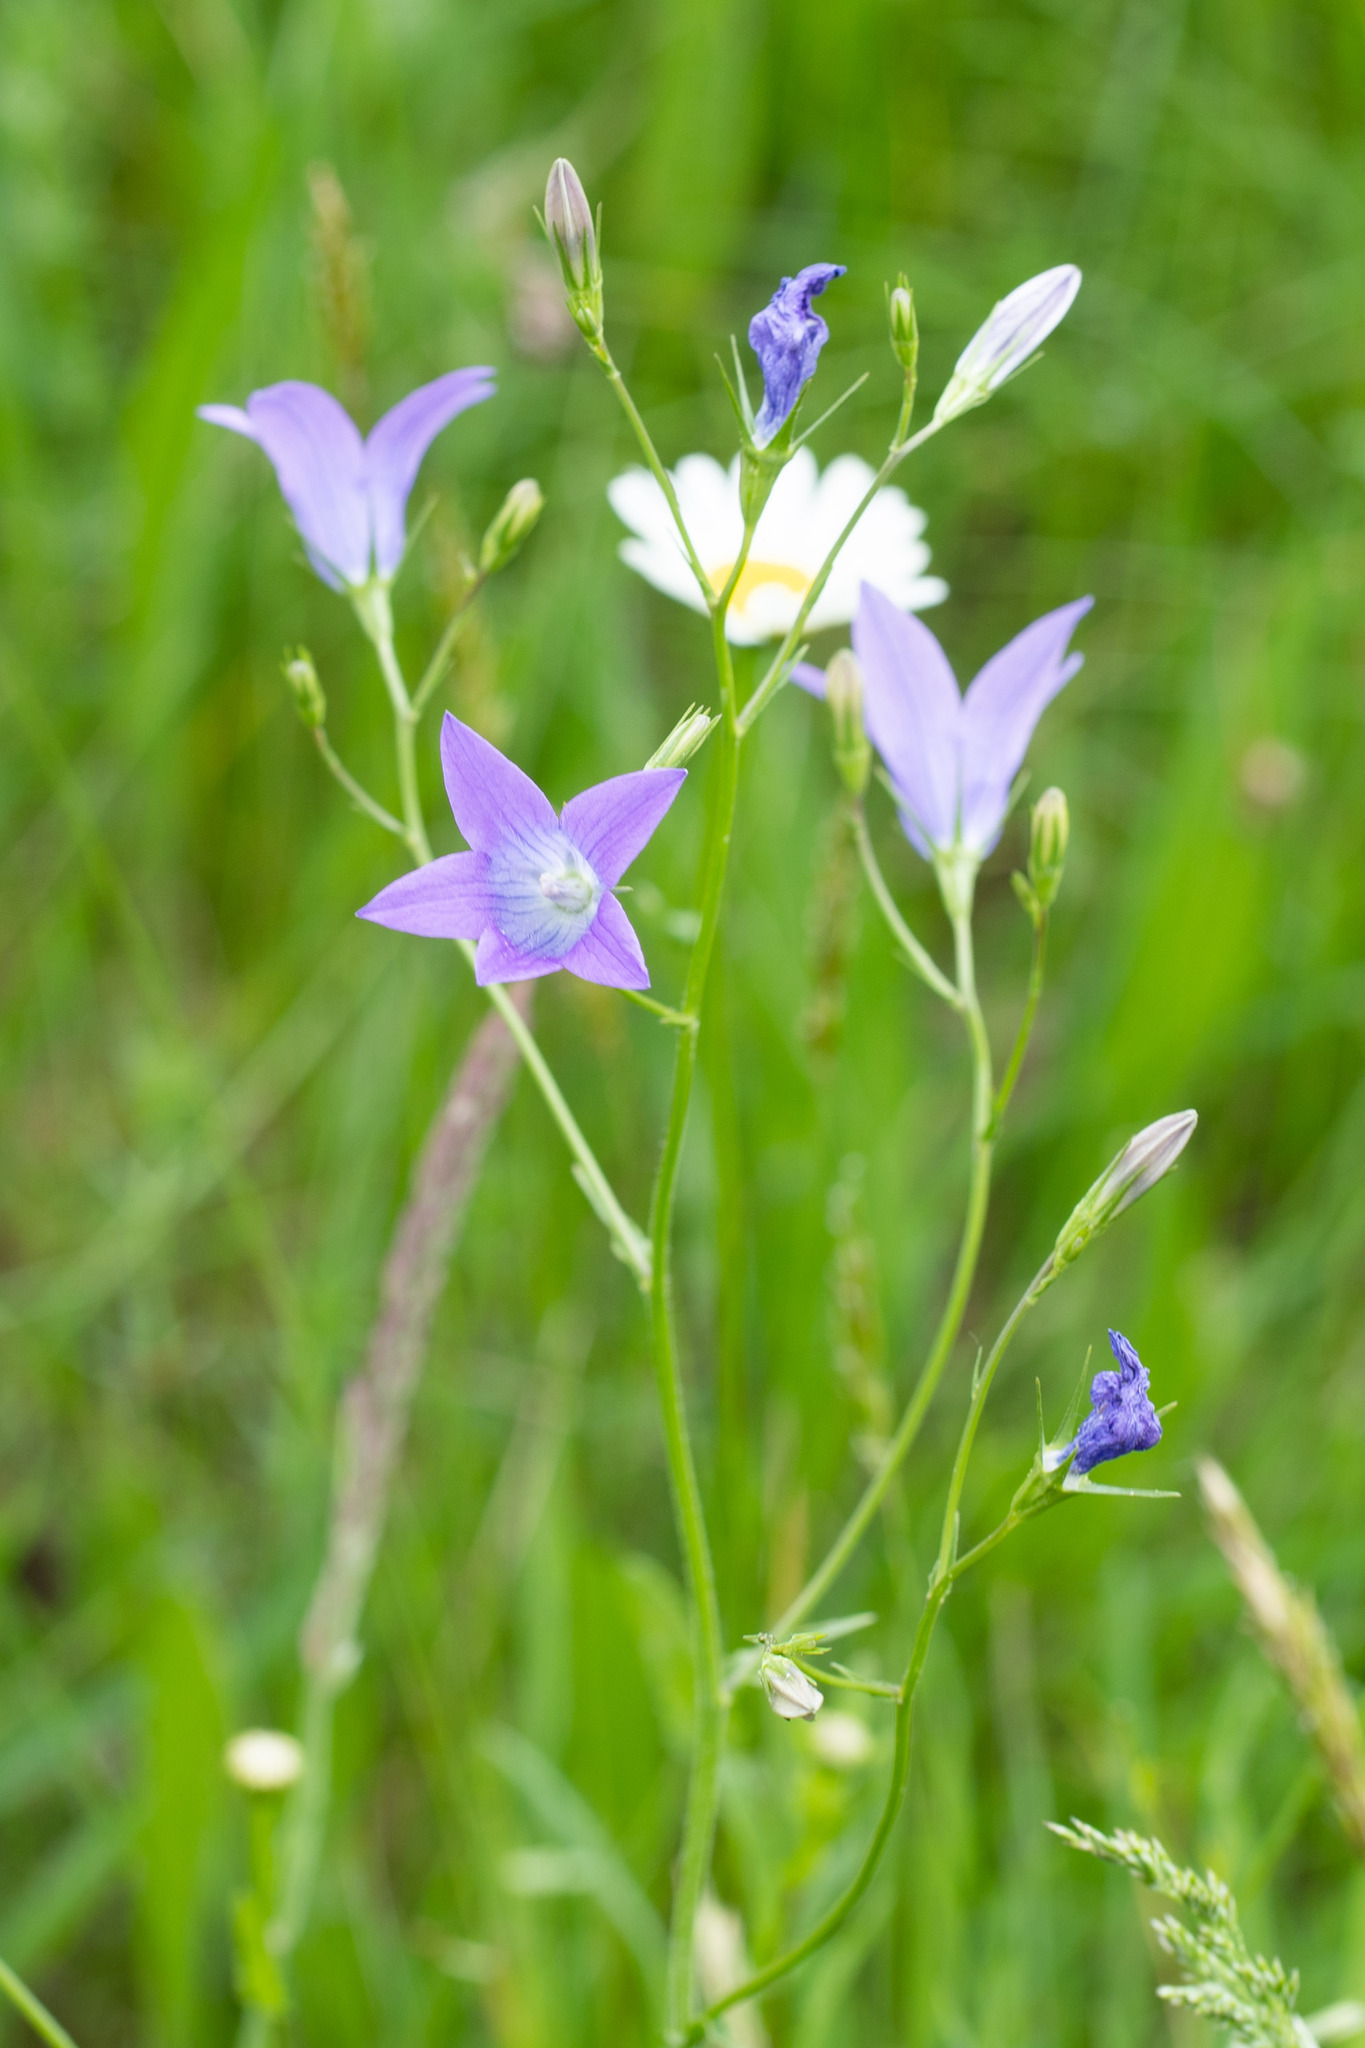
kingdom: Plantae
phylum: Tracheophyta
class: Magnoliopsida
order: Asterales
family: Campanulaceae
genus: Campanula
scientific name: Campanula patula
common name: Spreading bellflower
